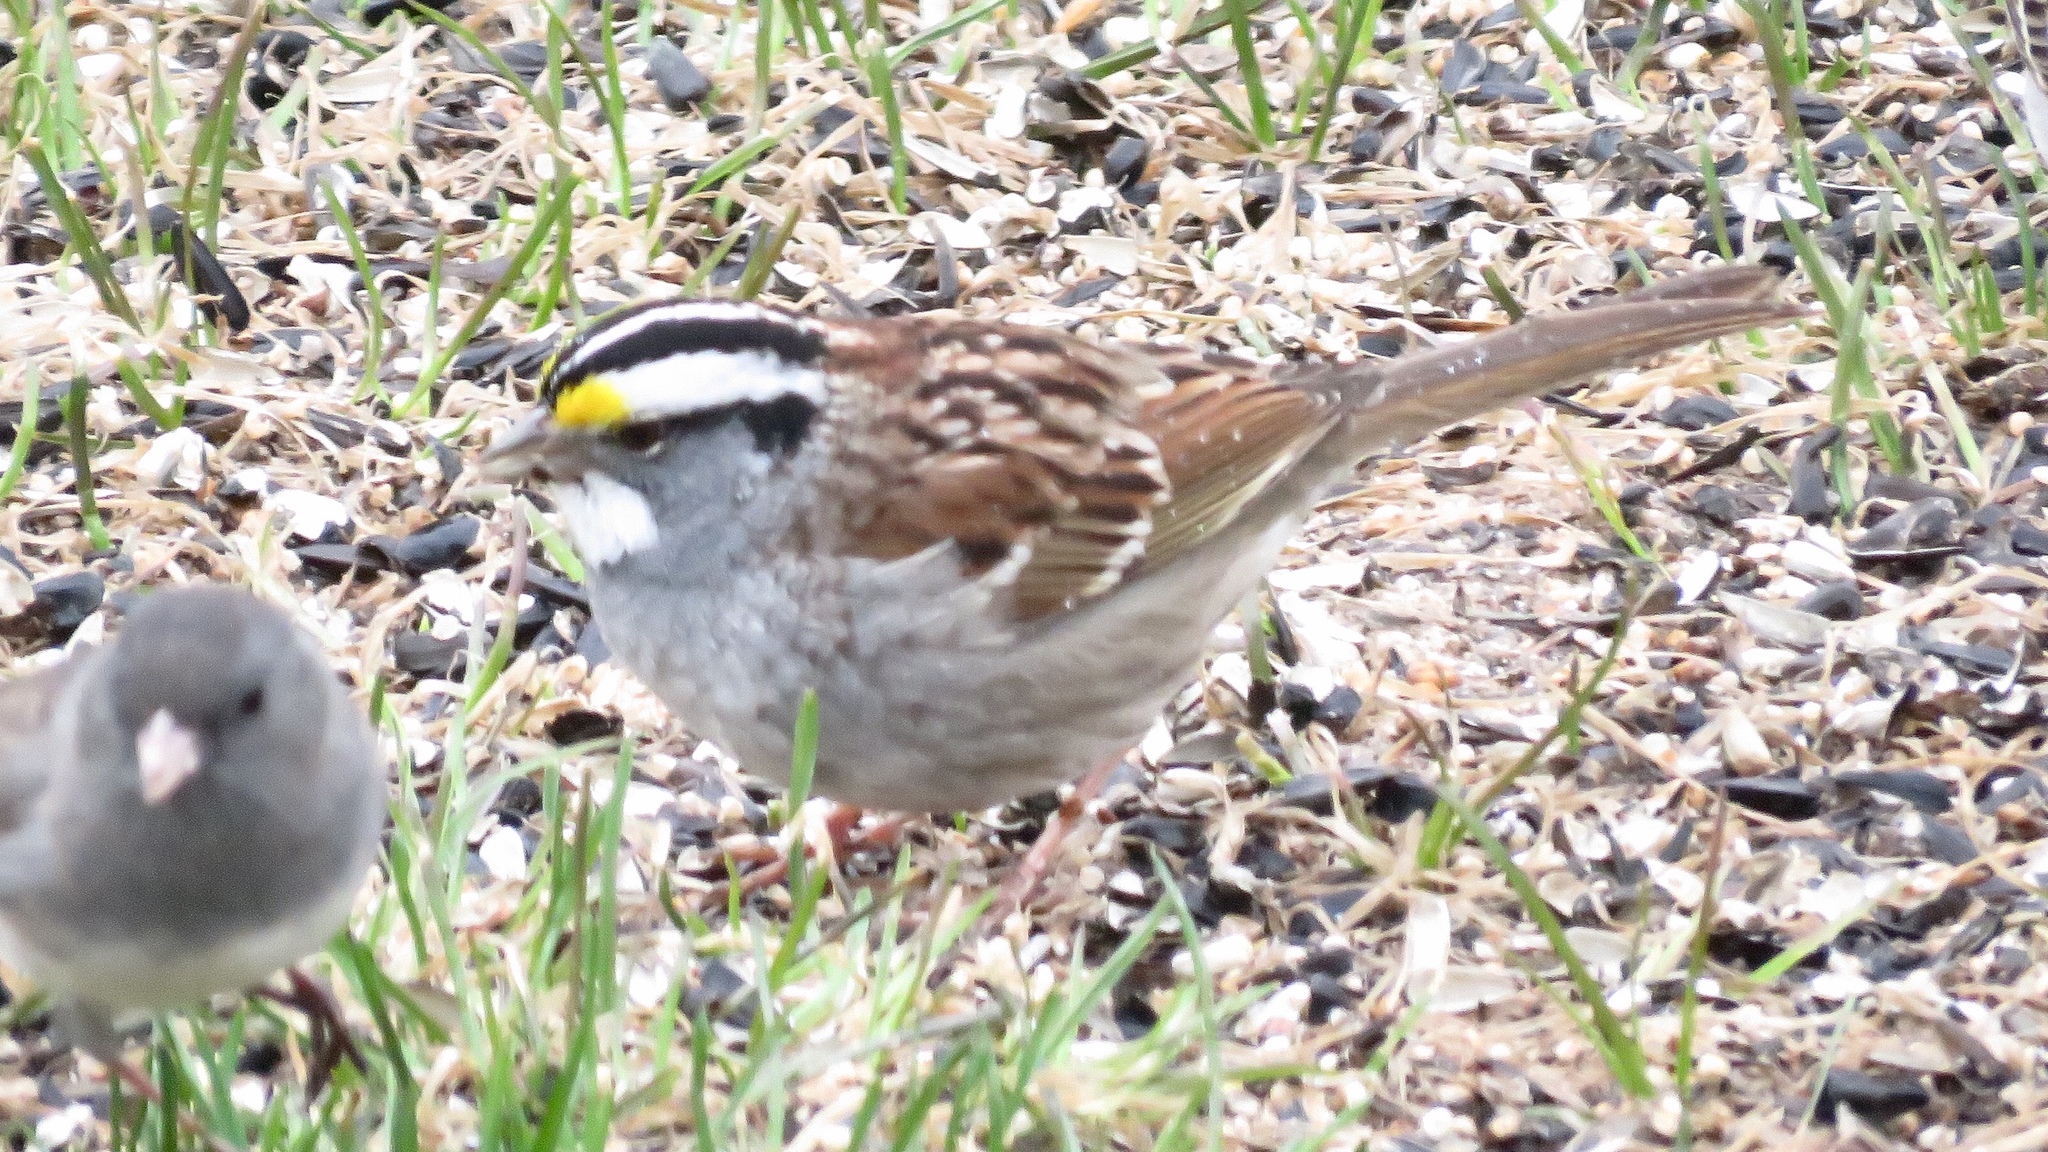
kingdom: Animalia
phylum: Chordata
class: Aves
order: Passeriformes
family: Passerellidae
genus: Zonotrichia
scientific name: Zonotrichia albicollis
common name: White-throated sparrow
